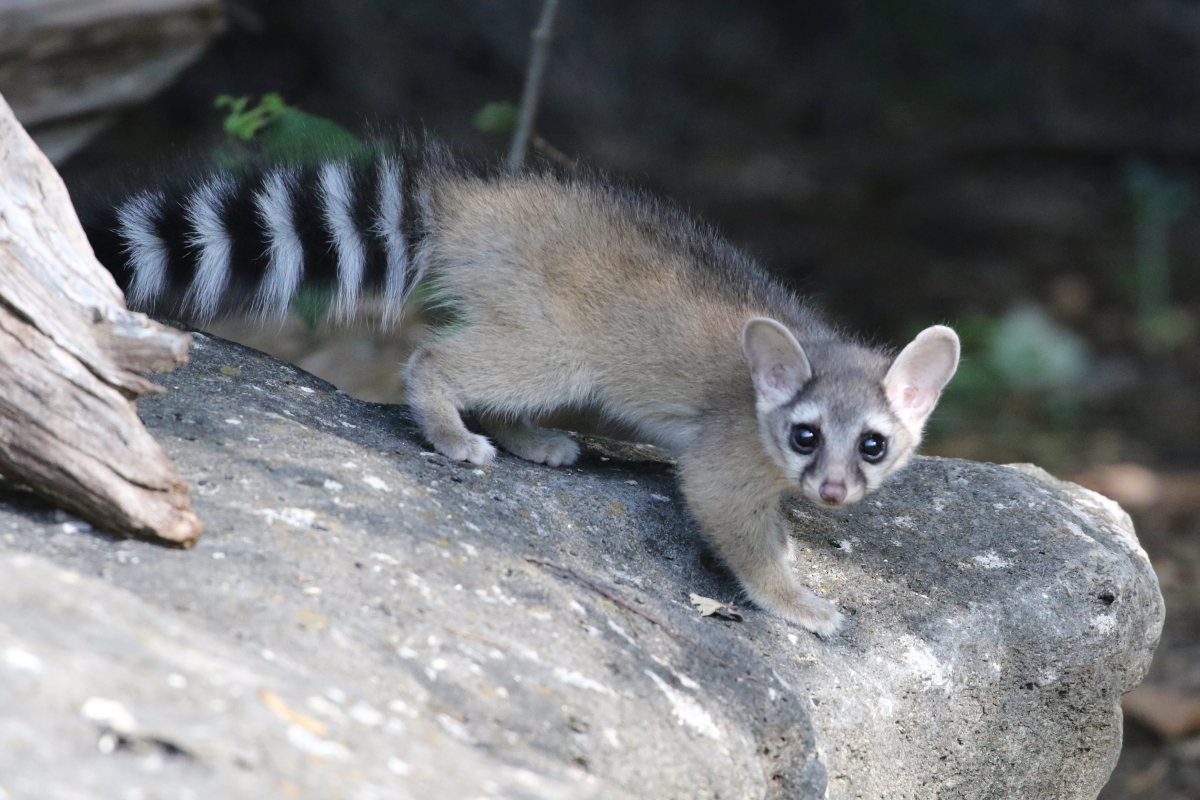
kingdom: Animalia
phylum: Chordata
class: Mammalia
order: Carnivora
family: Procyonidae
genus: Bassariscus
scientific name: Bassariscus astutus
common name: Ringtail
